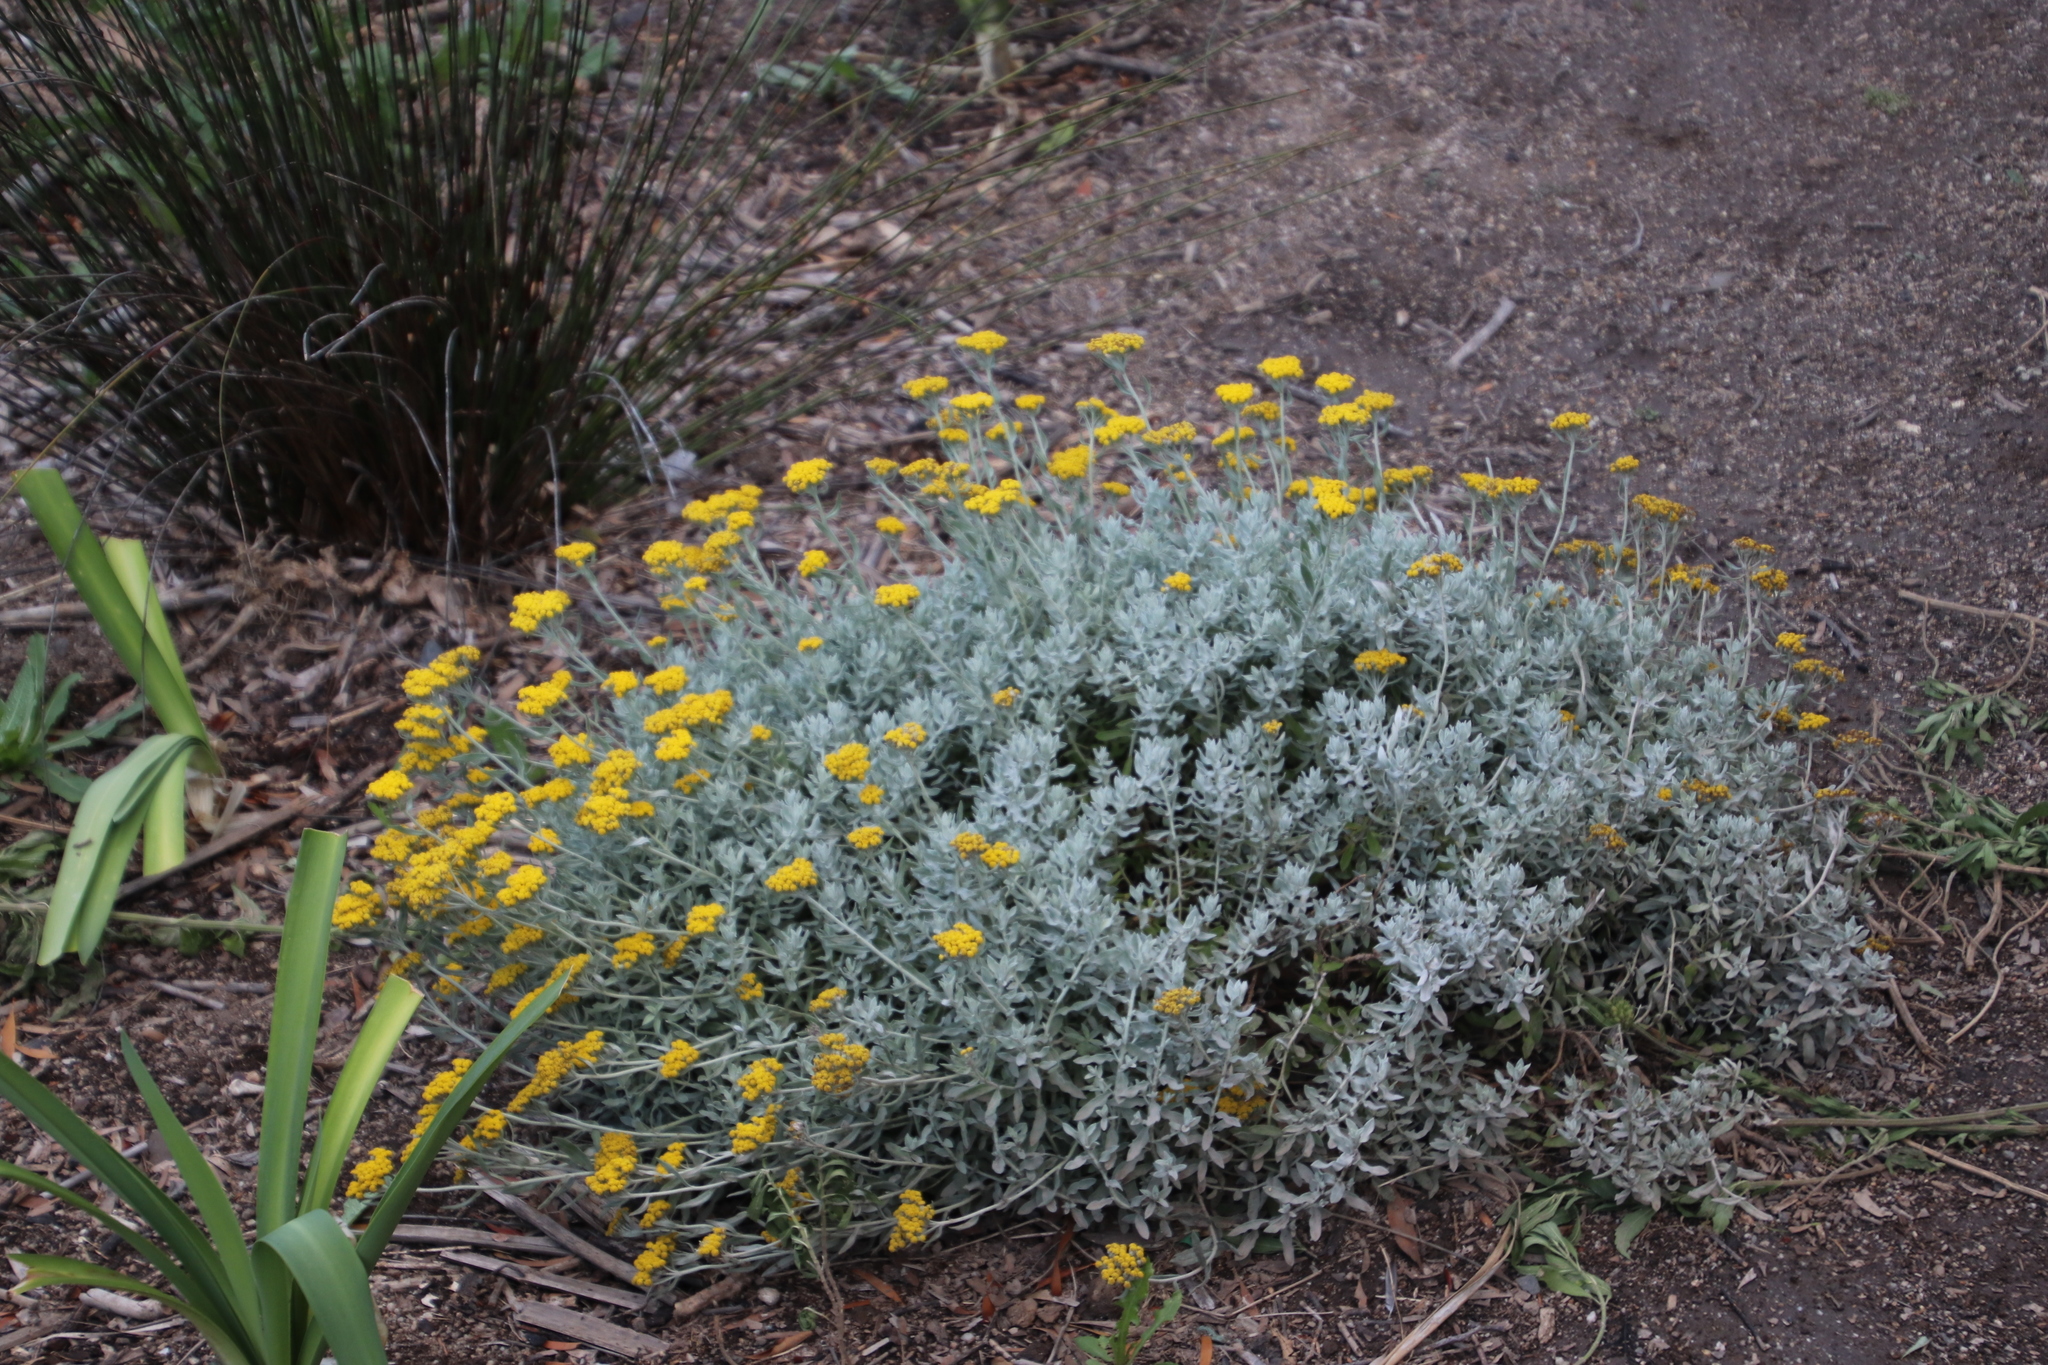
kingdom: Plantae
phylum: Tracheophyta
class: Magnoliopsida
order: Asterales
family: Asteraceae
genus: Helichrysum
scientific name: Helichrysum dasyanthum
